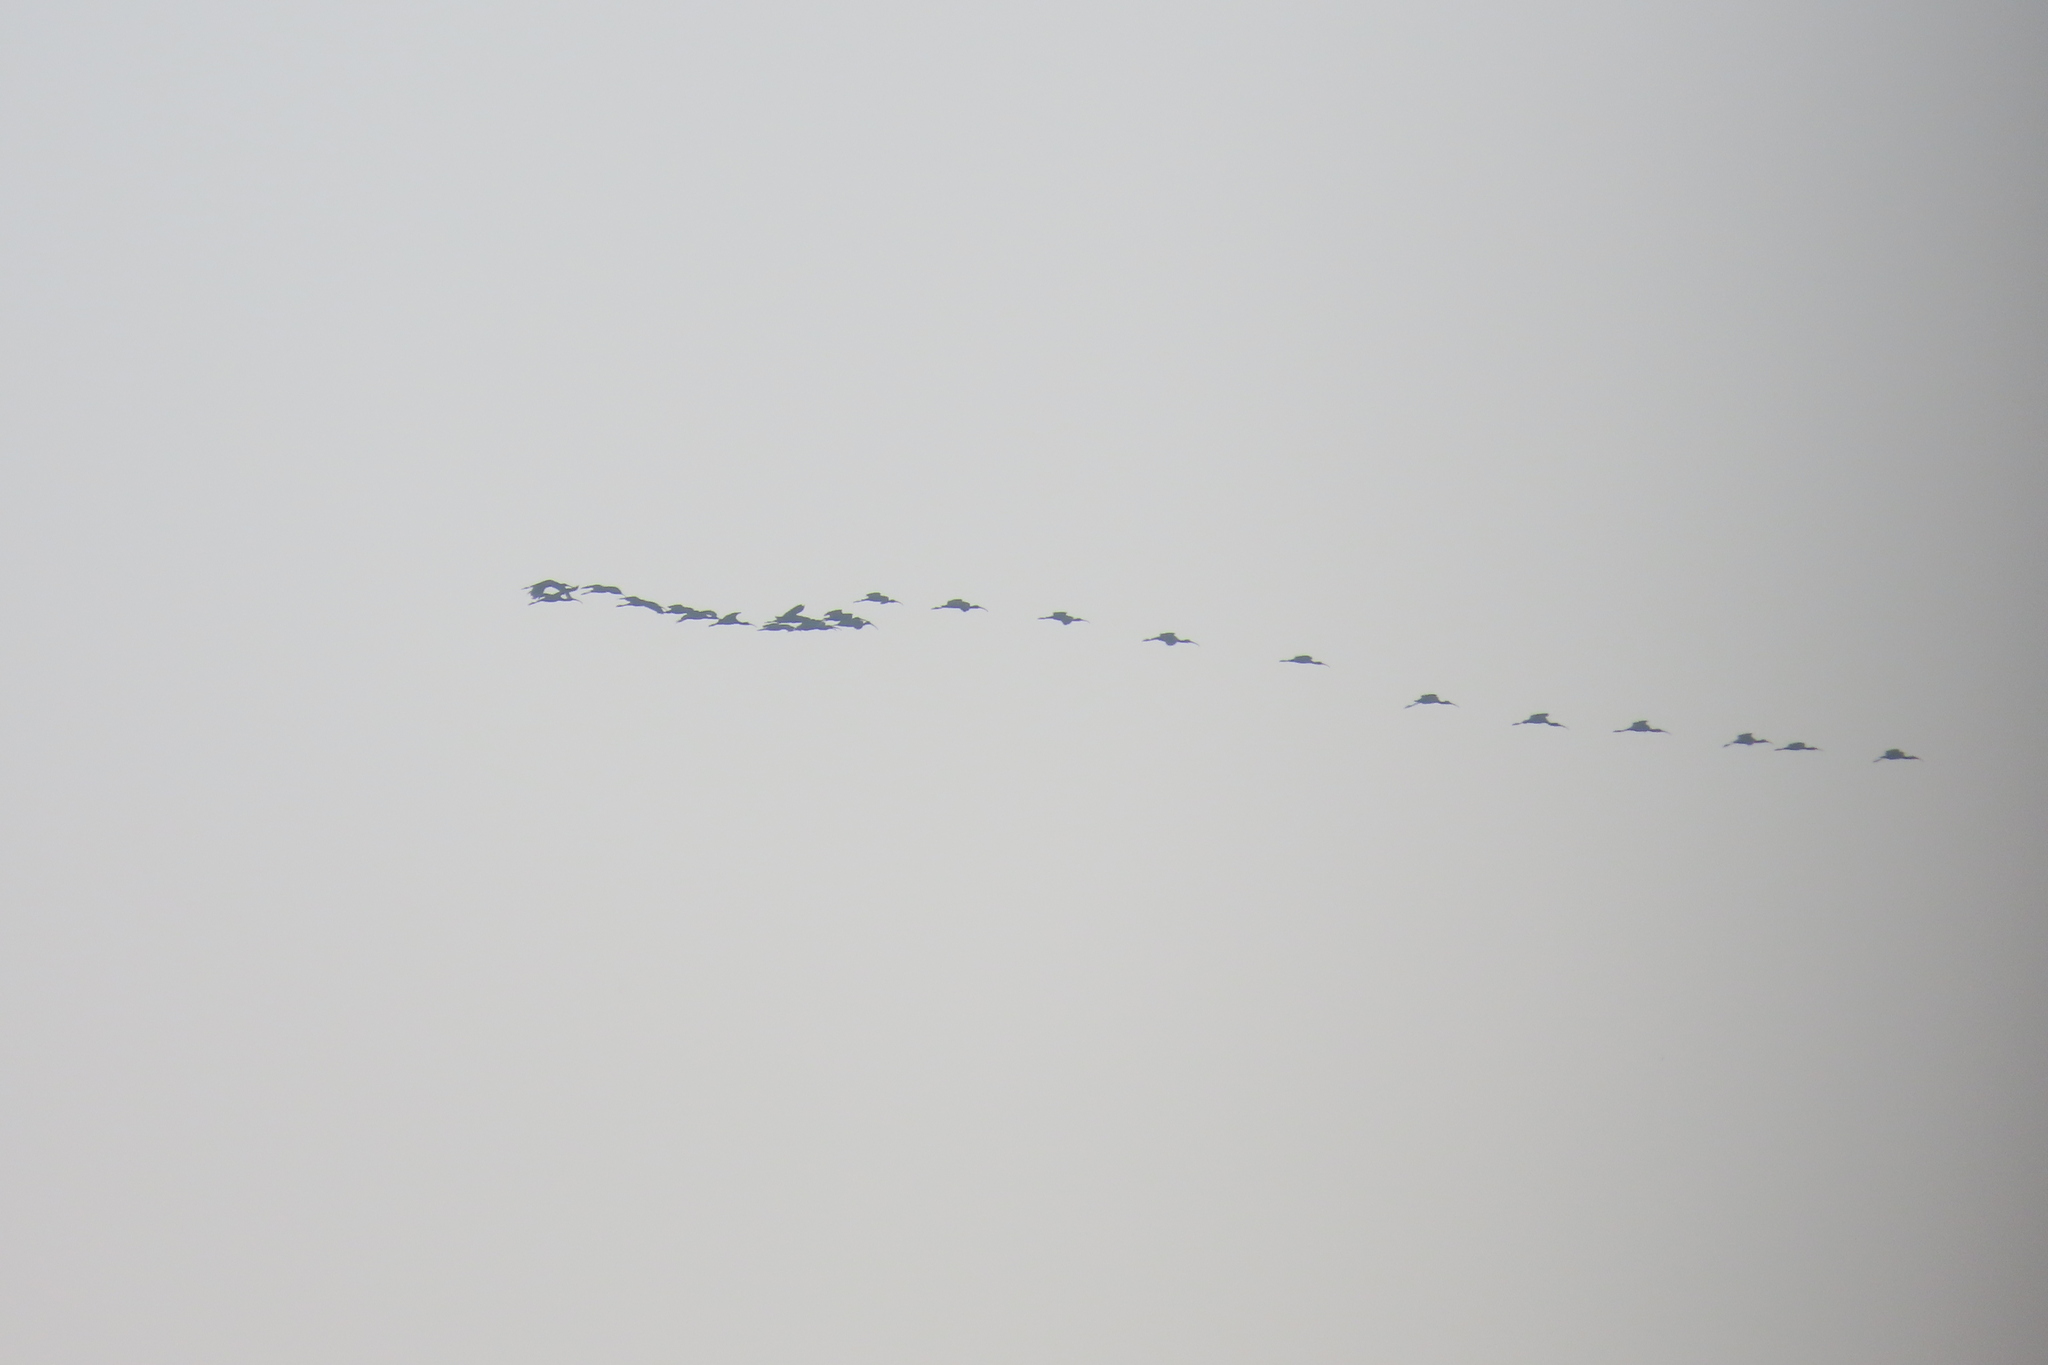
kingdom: Animalia
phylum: Chordata
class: Aves
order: Pelecaniformes
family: Threskiornithidae
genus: Plegadis
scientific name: Plegadis falcinellus
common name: Glossy ibis
